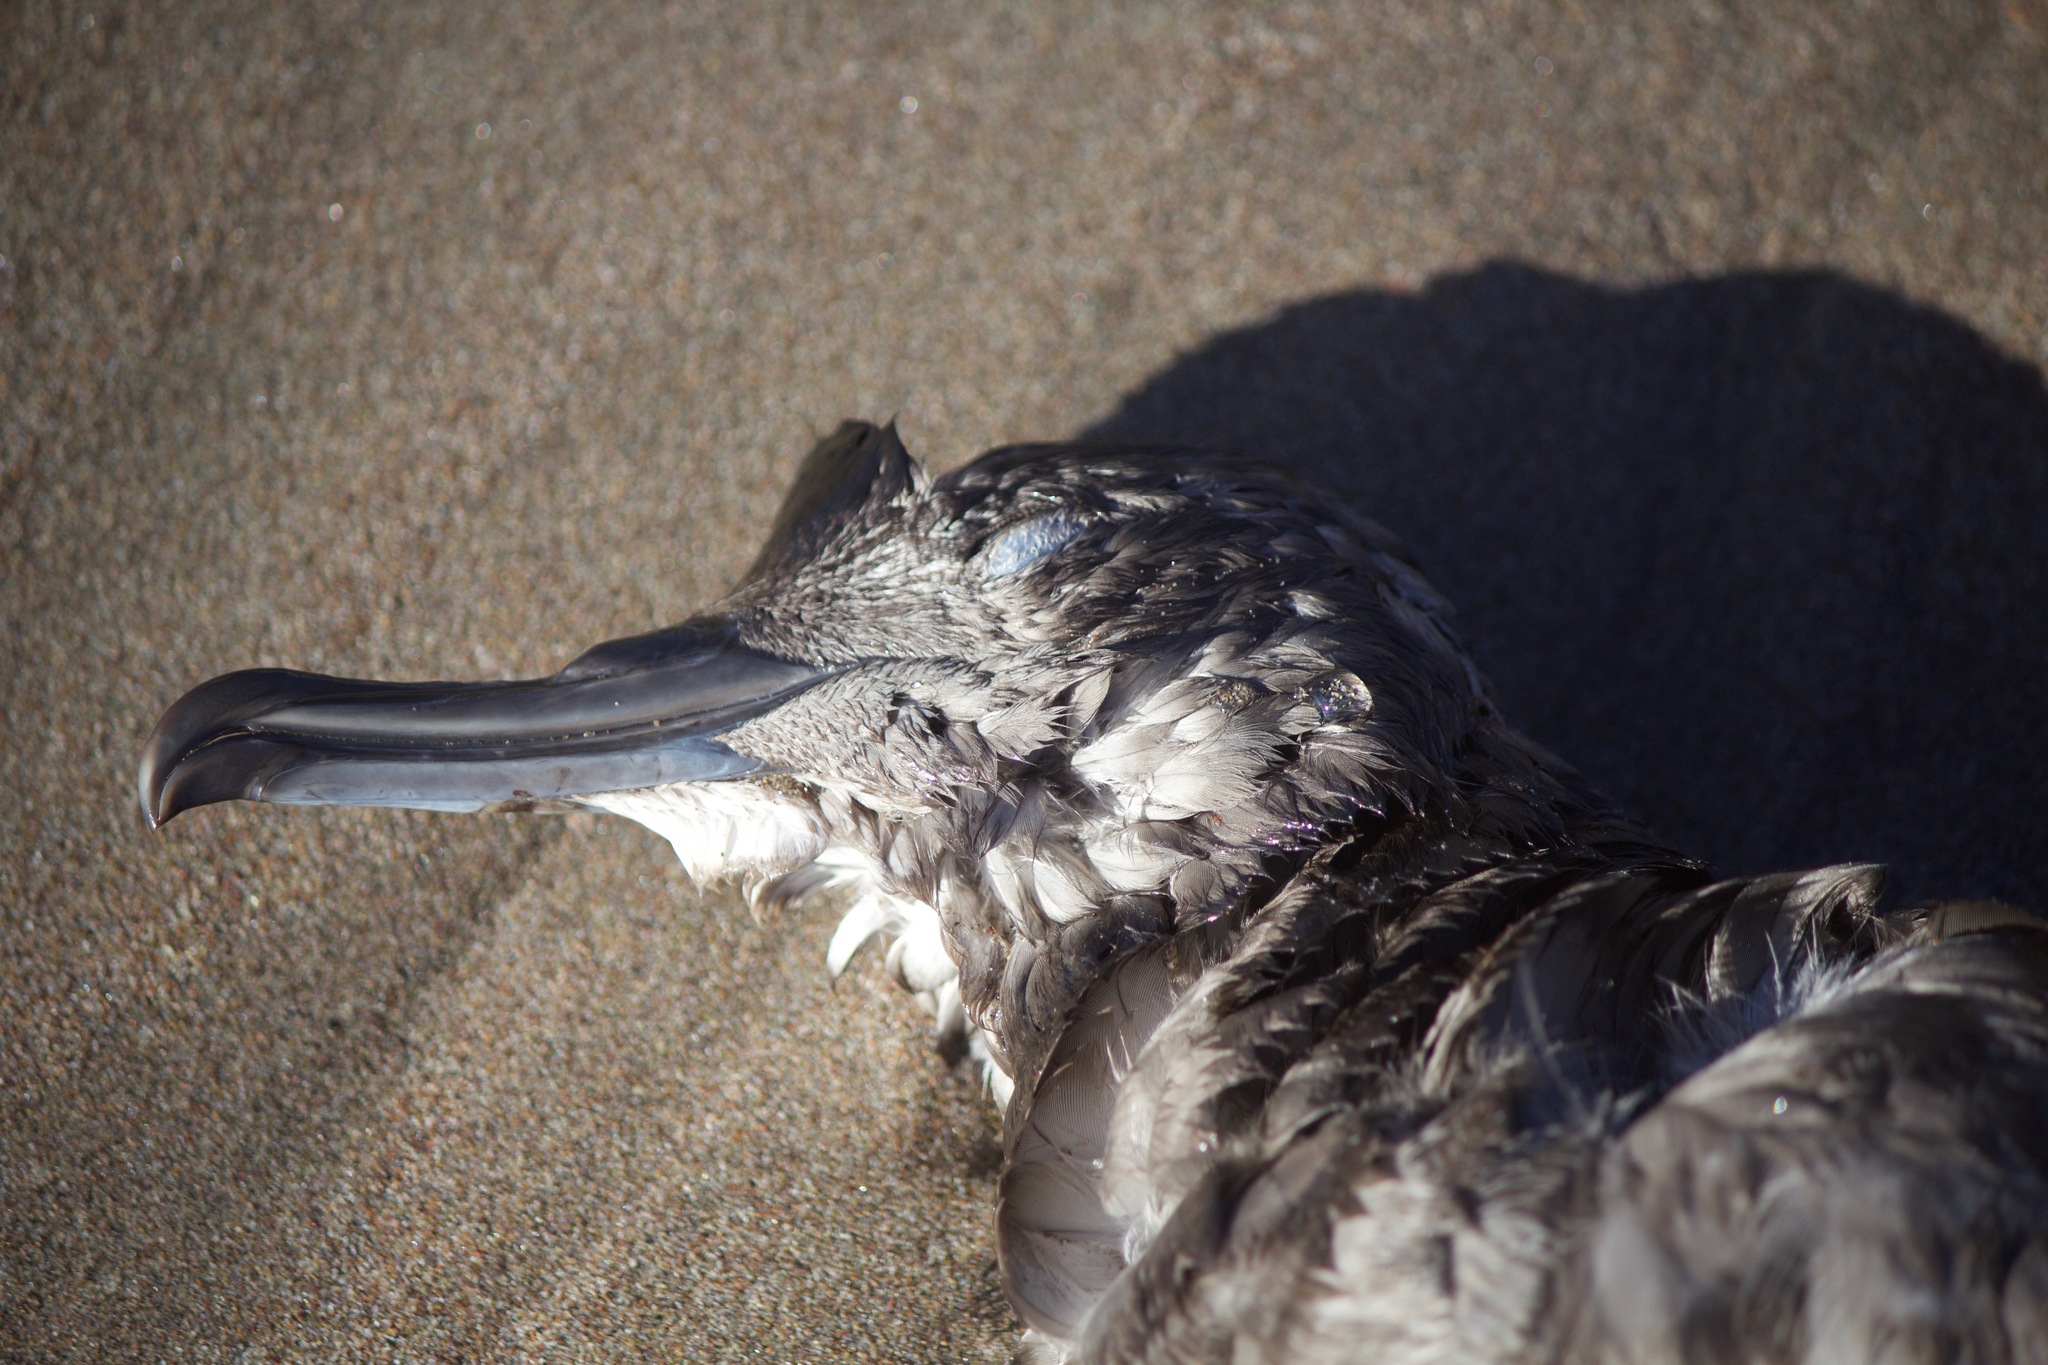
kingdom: Animalia
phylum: Chordata
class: Aves
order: Procellariiformes
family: Procellariidae
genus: Puffinus
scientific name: Puffinus griseus
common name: Sooty shearwater
